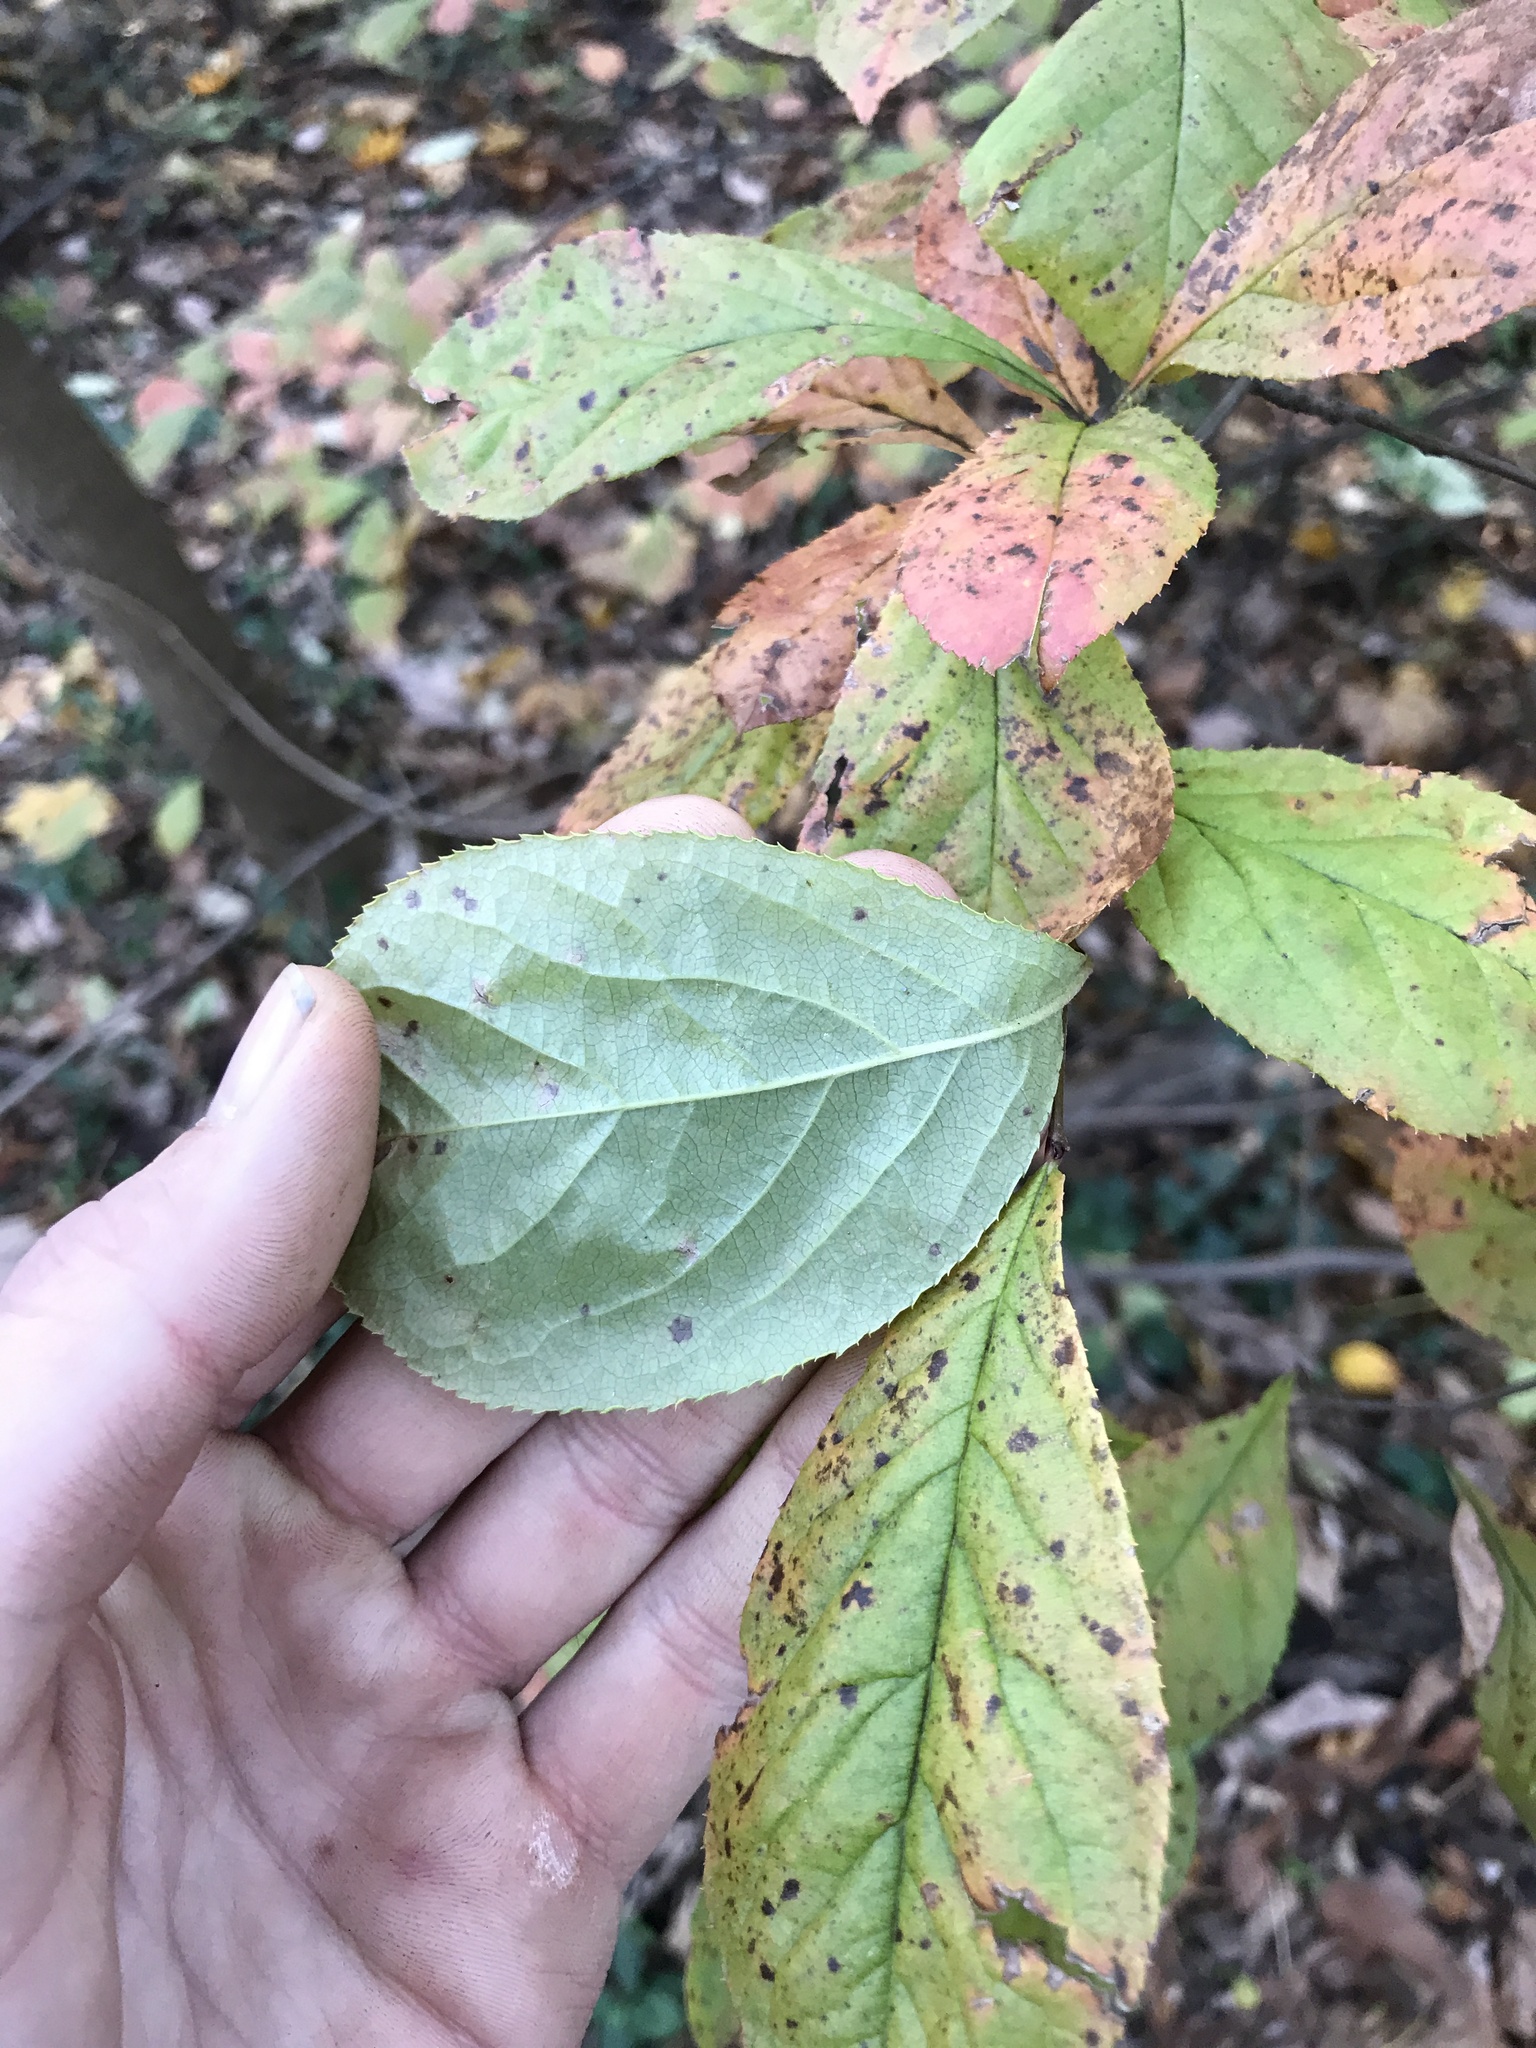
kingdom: Plantae
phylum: Tracheophyta
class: Magnoliopsida
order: Rosales
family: Rosaceae
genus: Pourthiaea
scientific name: Pourthiaea villosa
